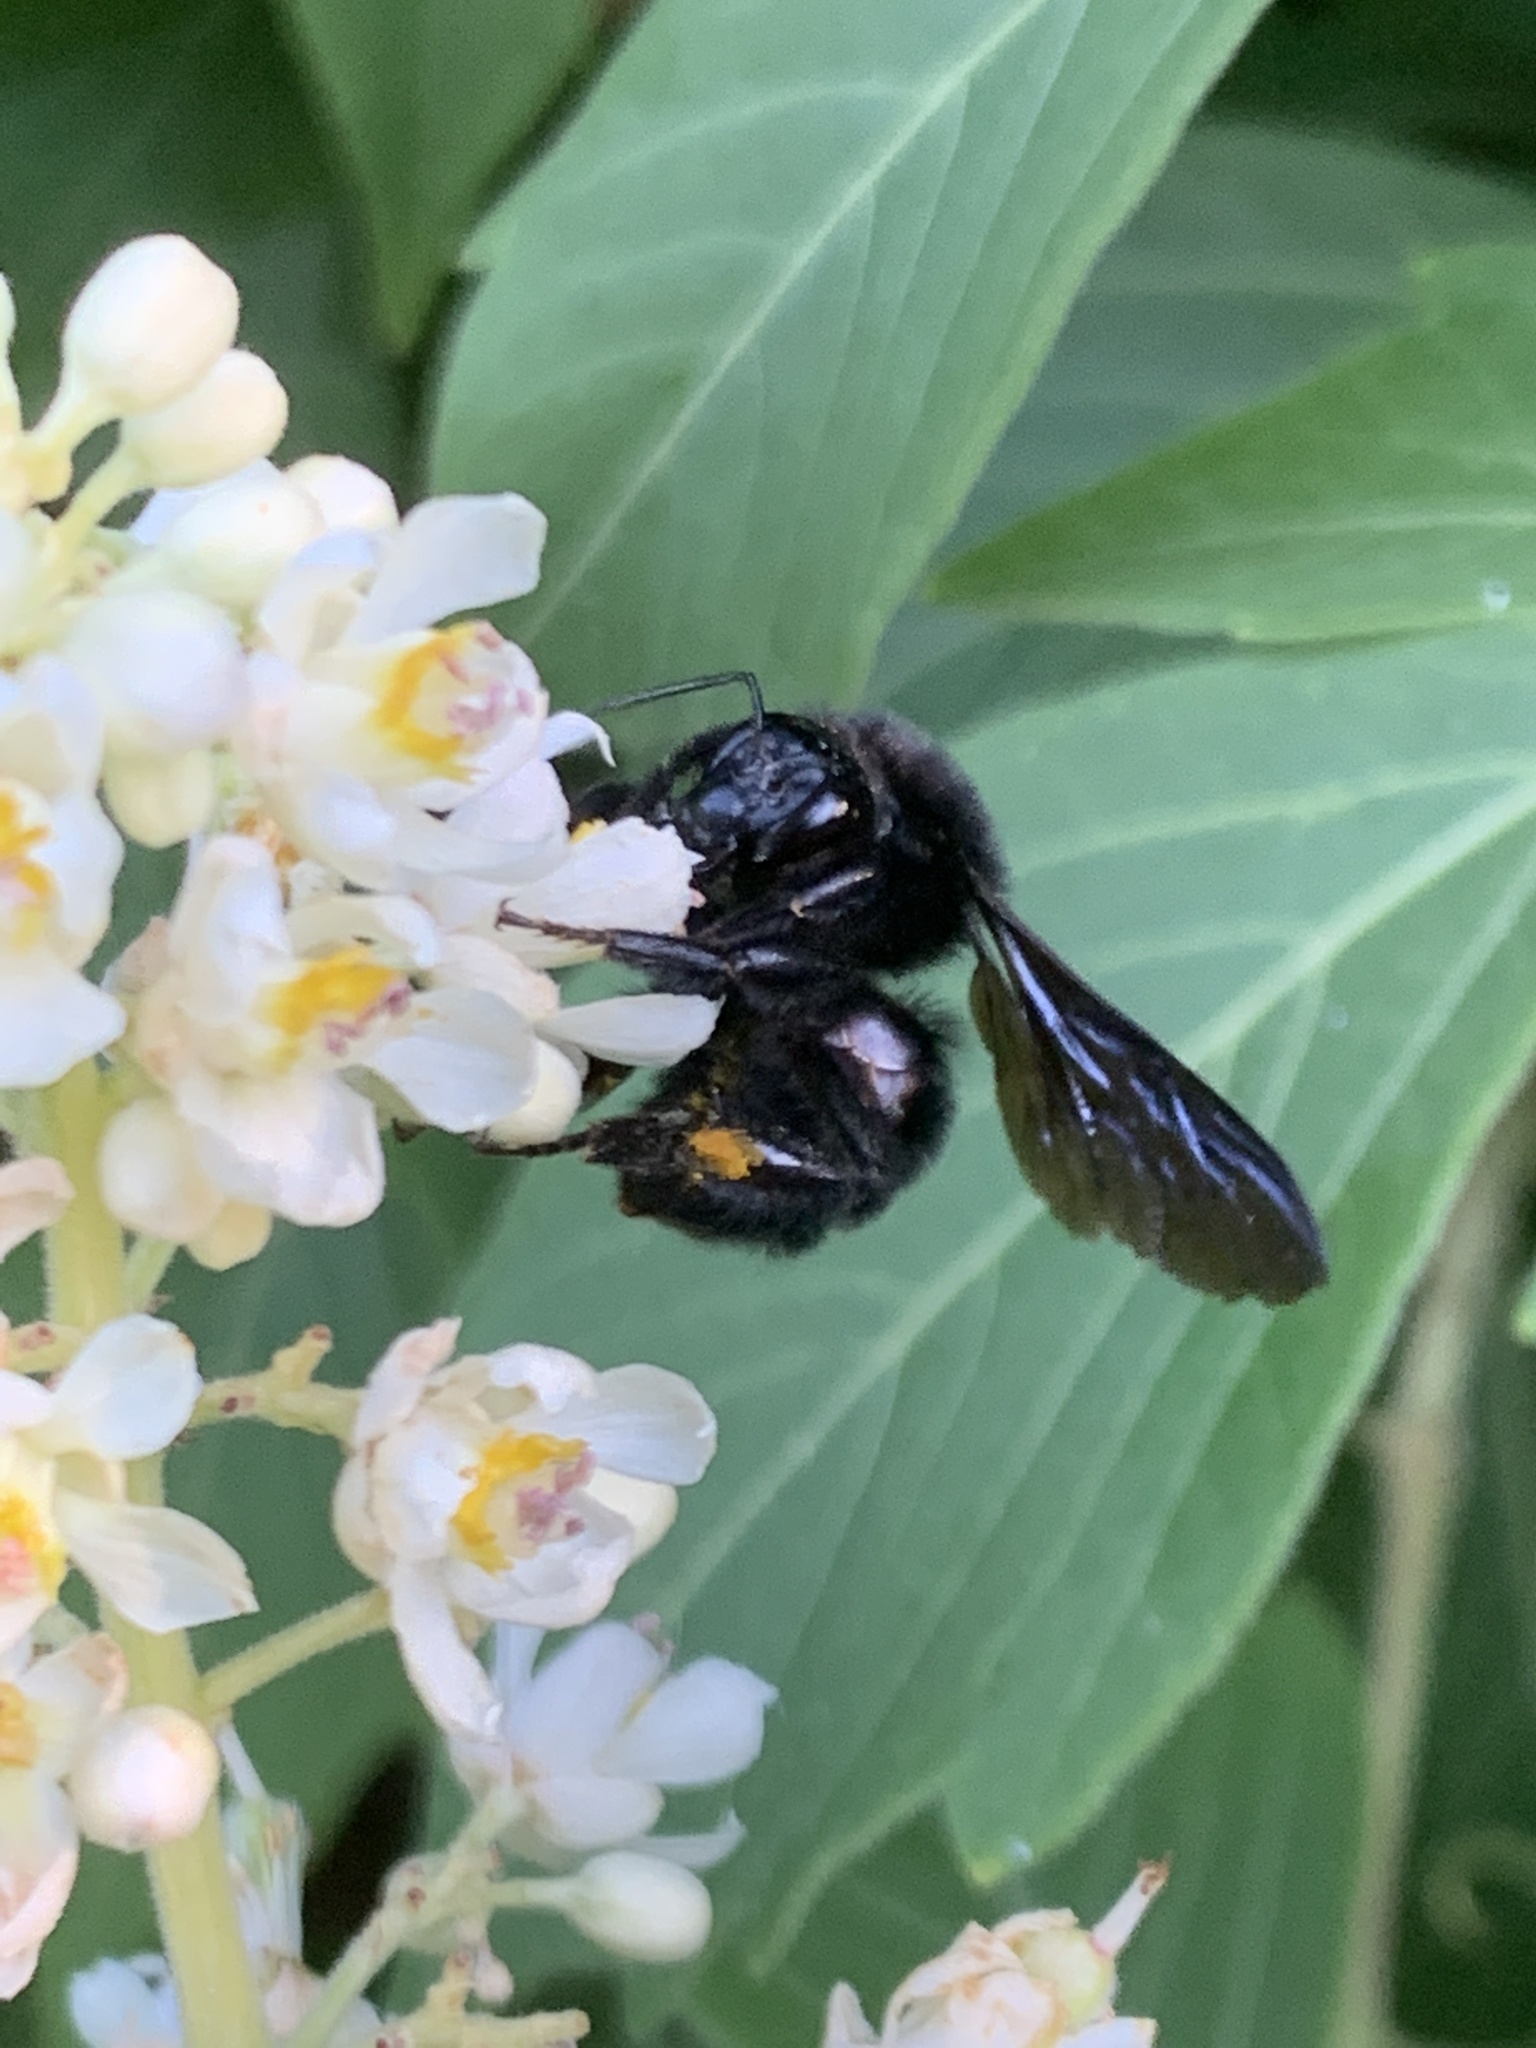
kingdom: Animalia
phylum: Arthropoda
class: Insecta
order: Hymenoptera
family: Apidae
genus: Bombus
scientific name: Bombus pauloensis
